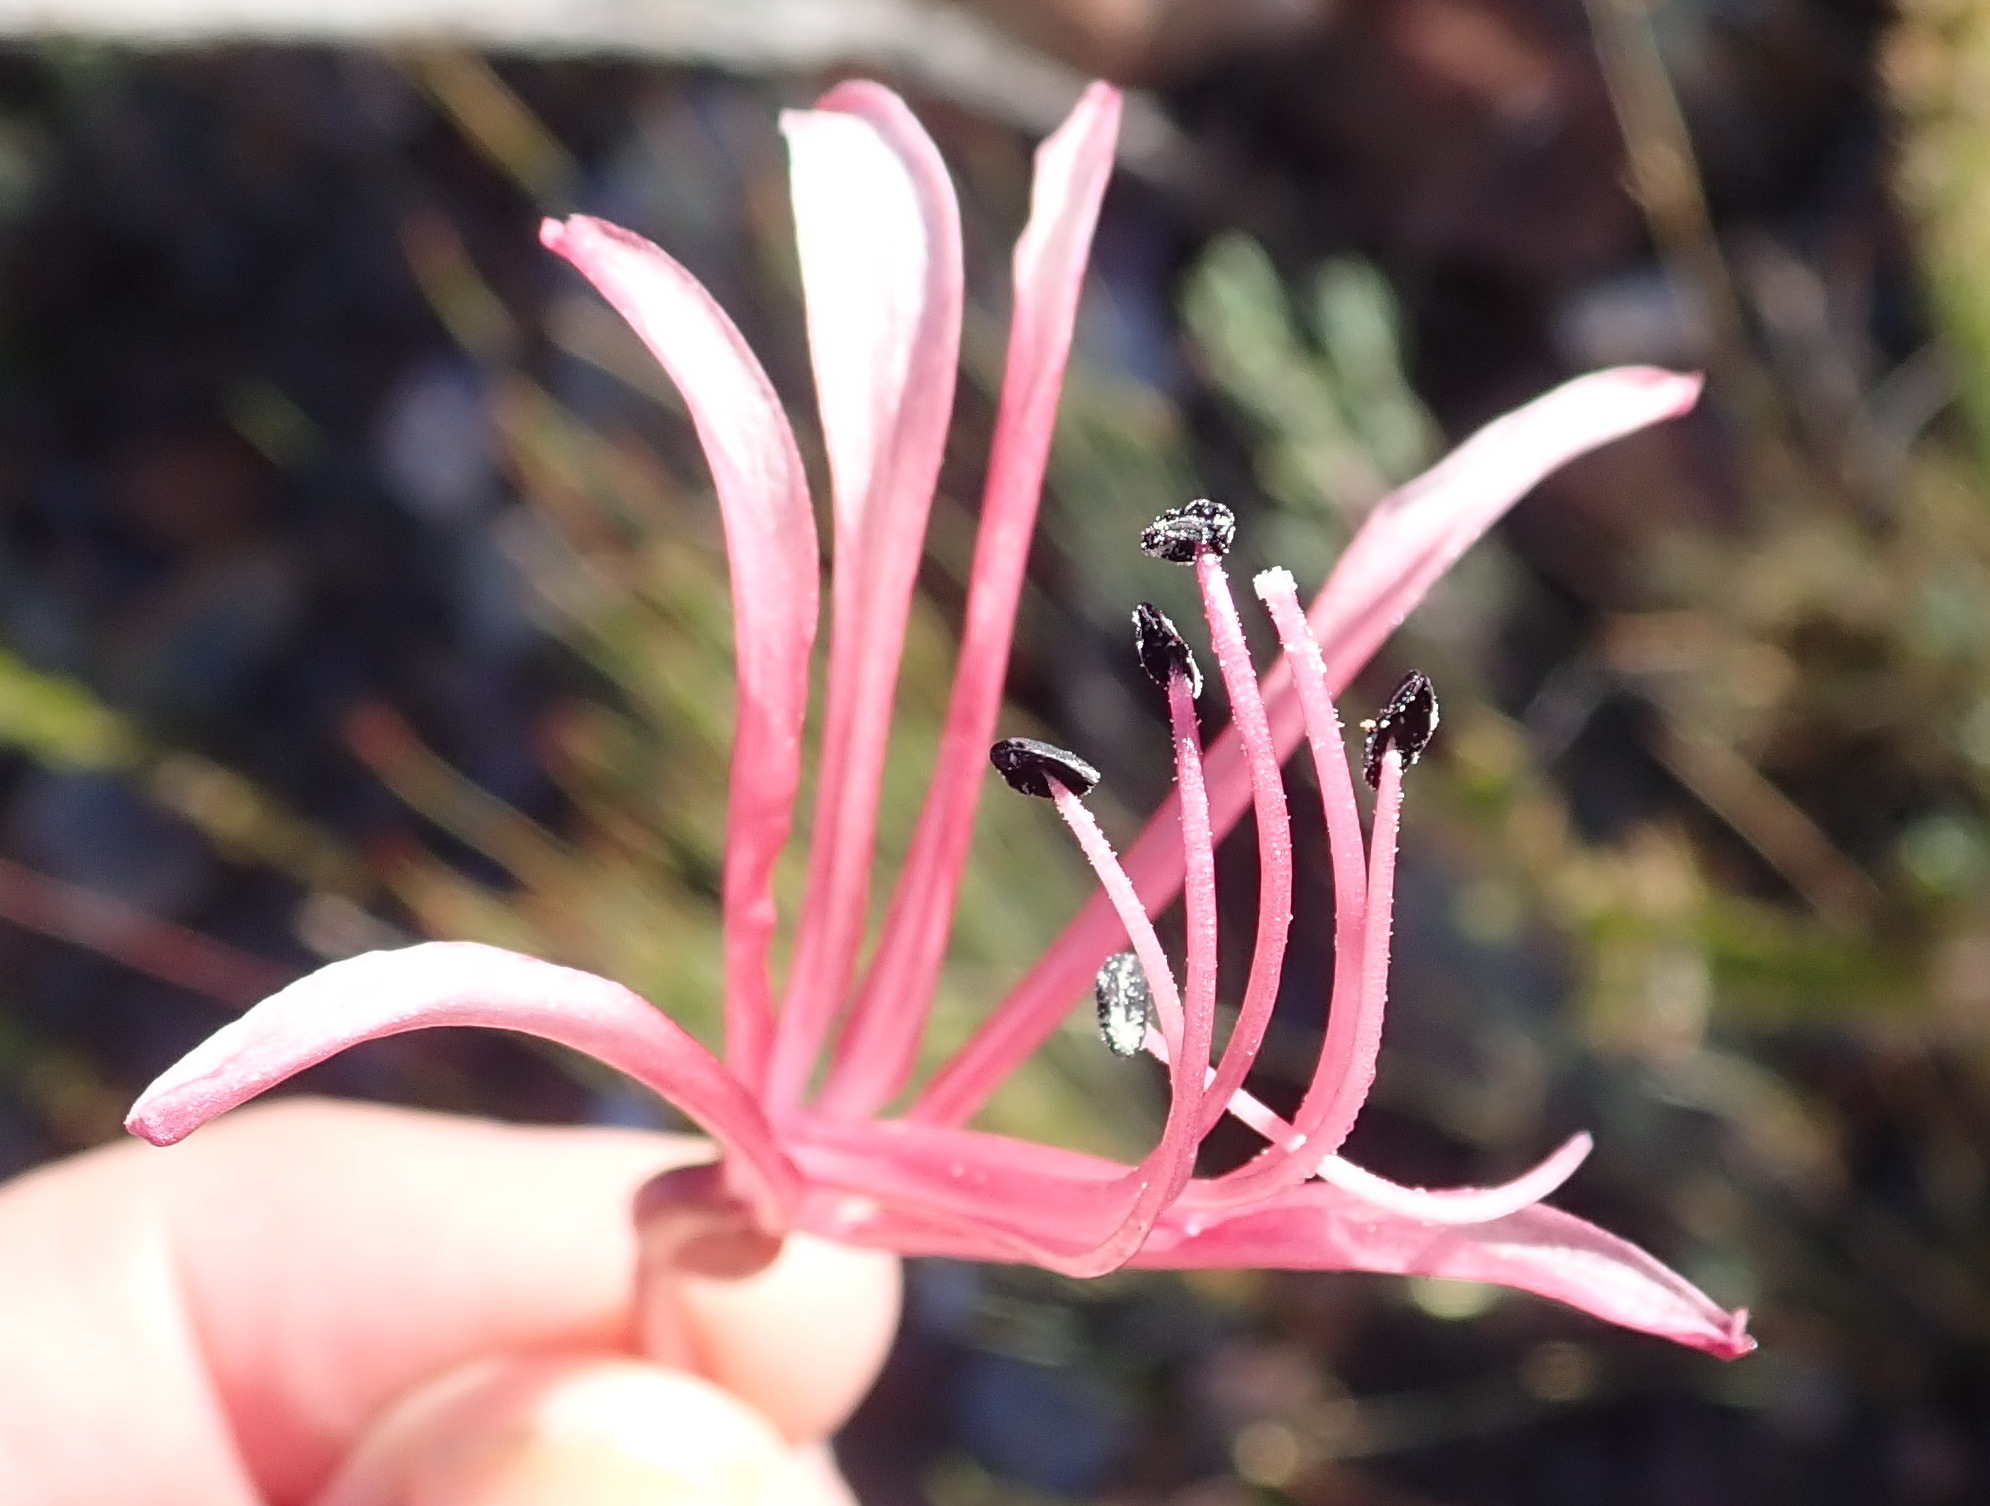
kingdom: Plantae
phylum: Tracheophyta
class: Liliopsida
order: Asparagales
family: Amaryllidaceae
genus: Brunsvigia
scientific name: Brunsvigia nervosa
